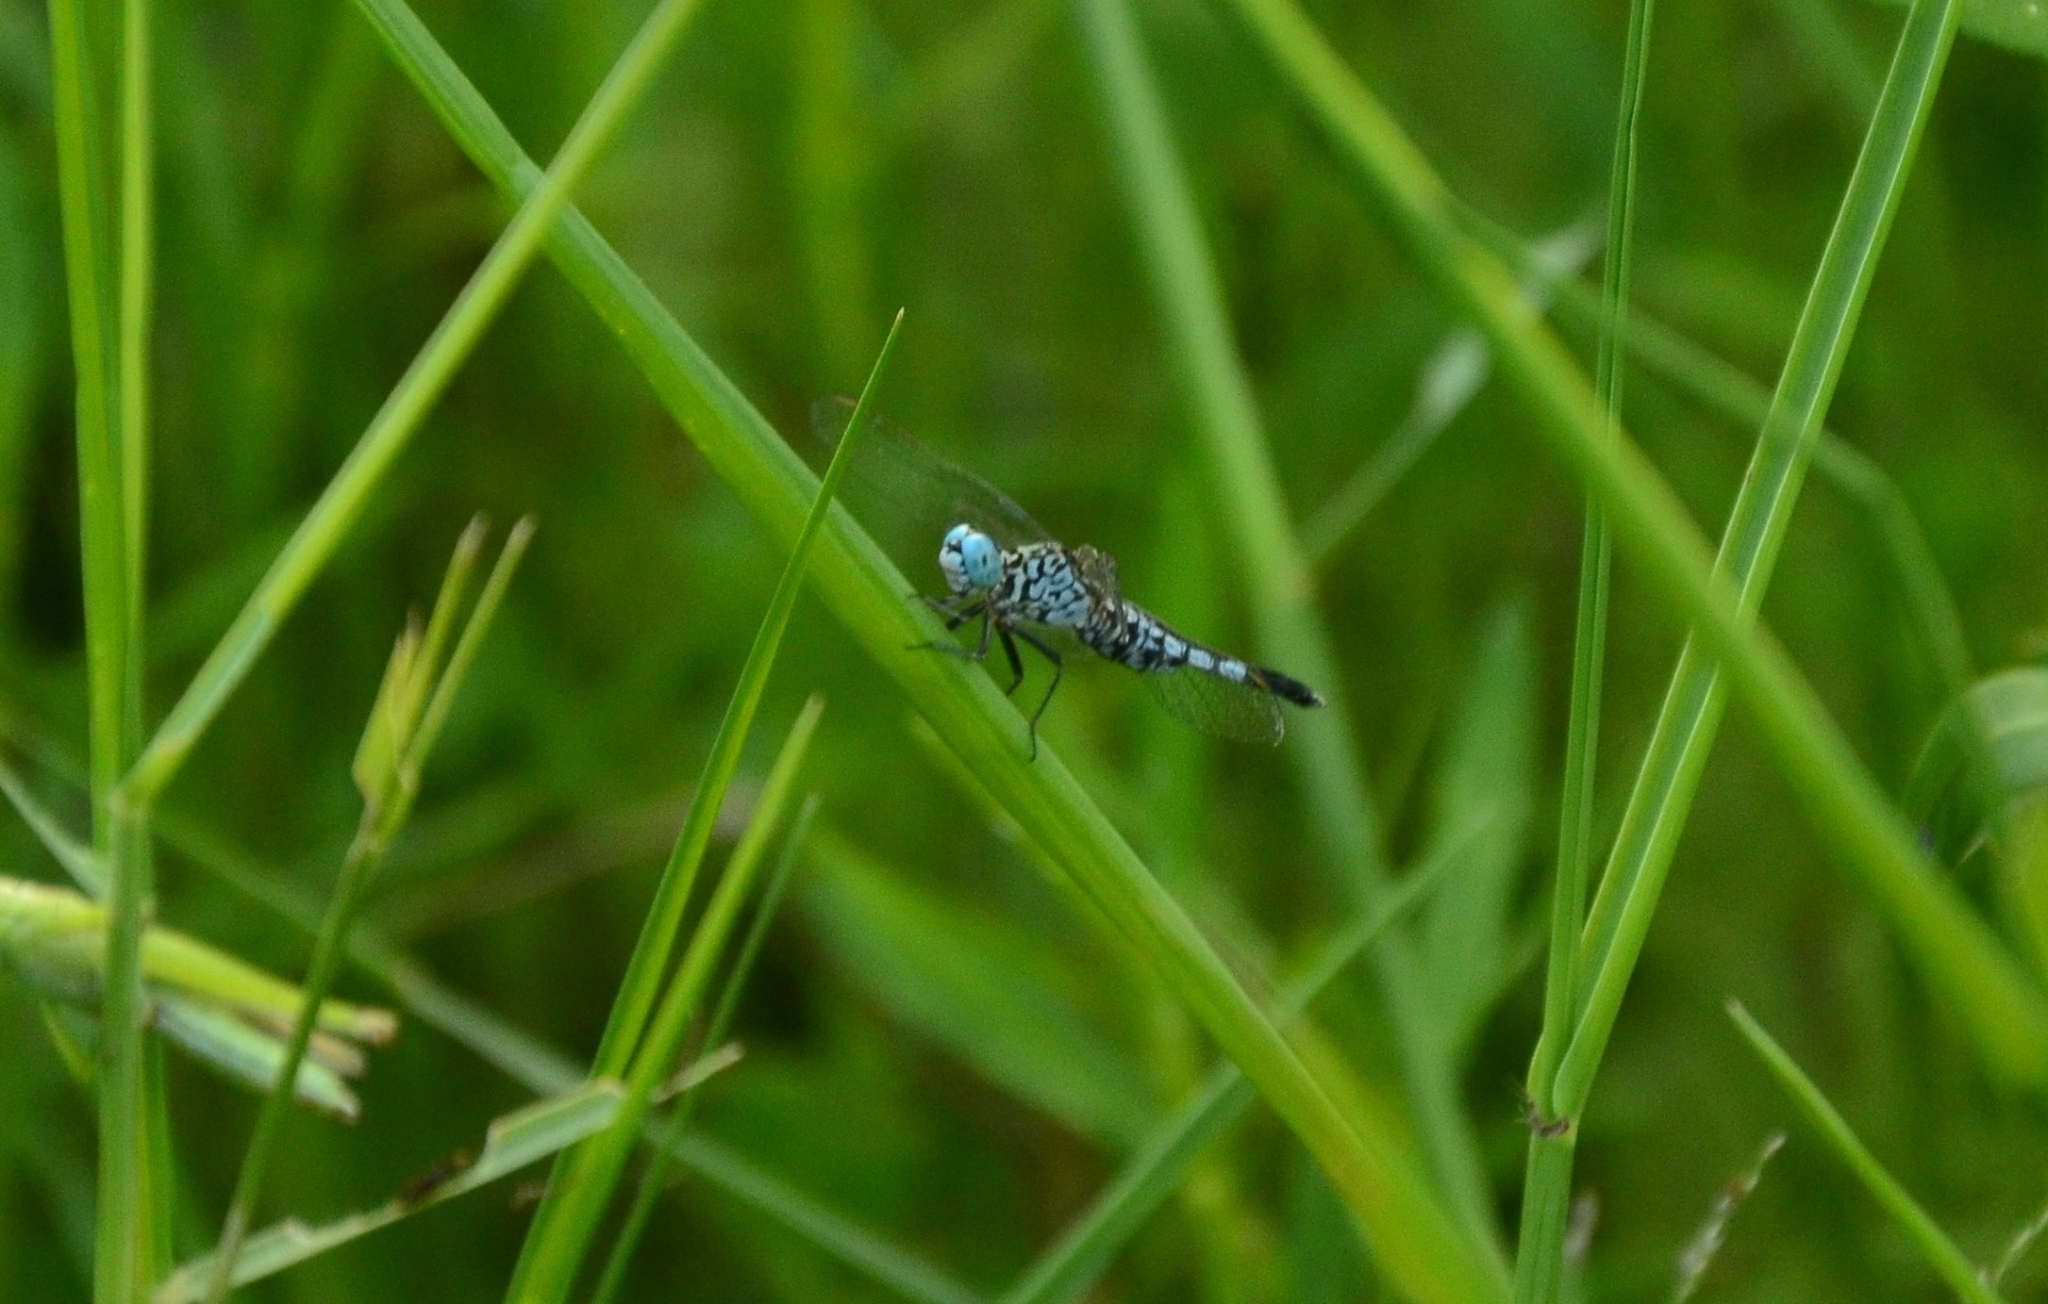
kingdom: Animalia
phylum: Arthropoda
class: Insecta
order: Odonata
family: Libellulidae
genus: Acisoma
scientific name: Acisoma panorpoides
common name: Asian pintail
